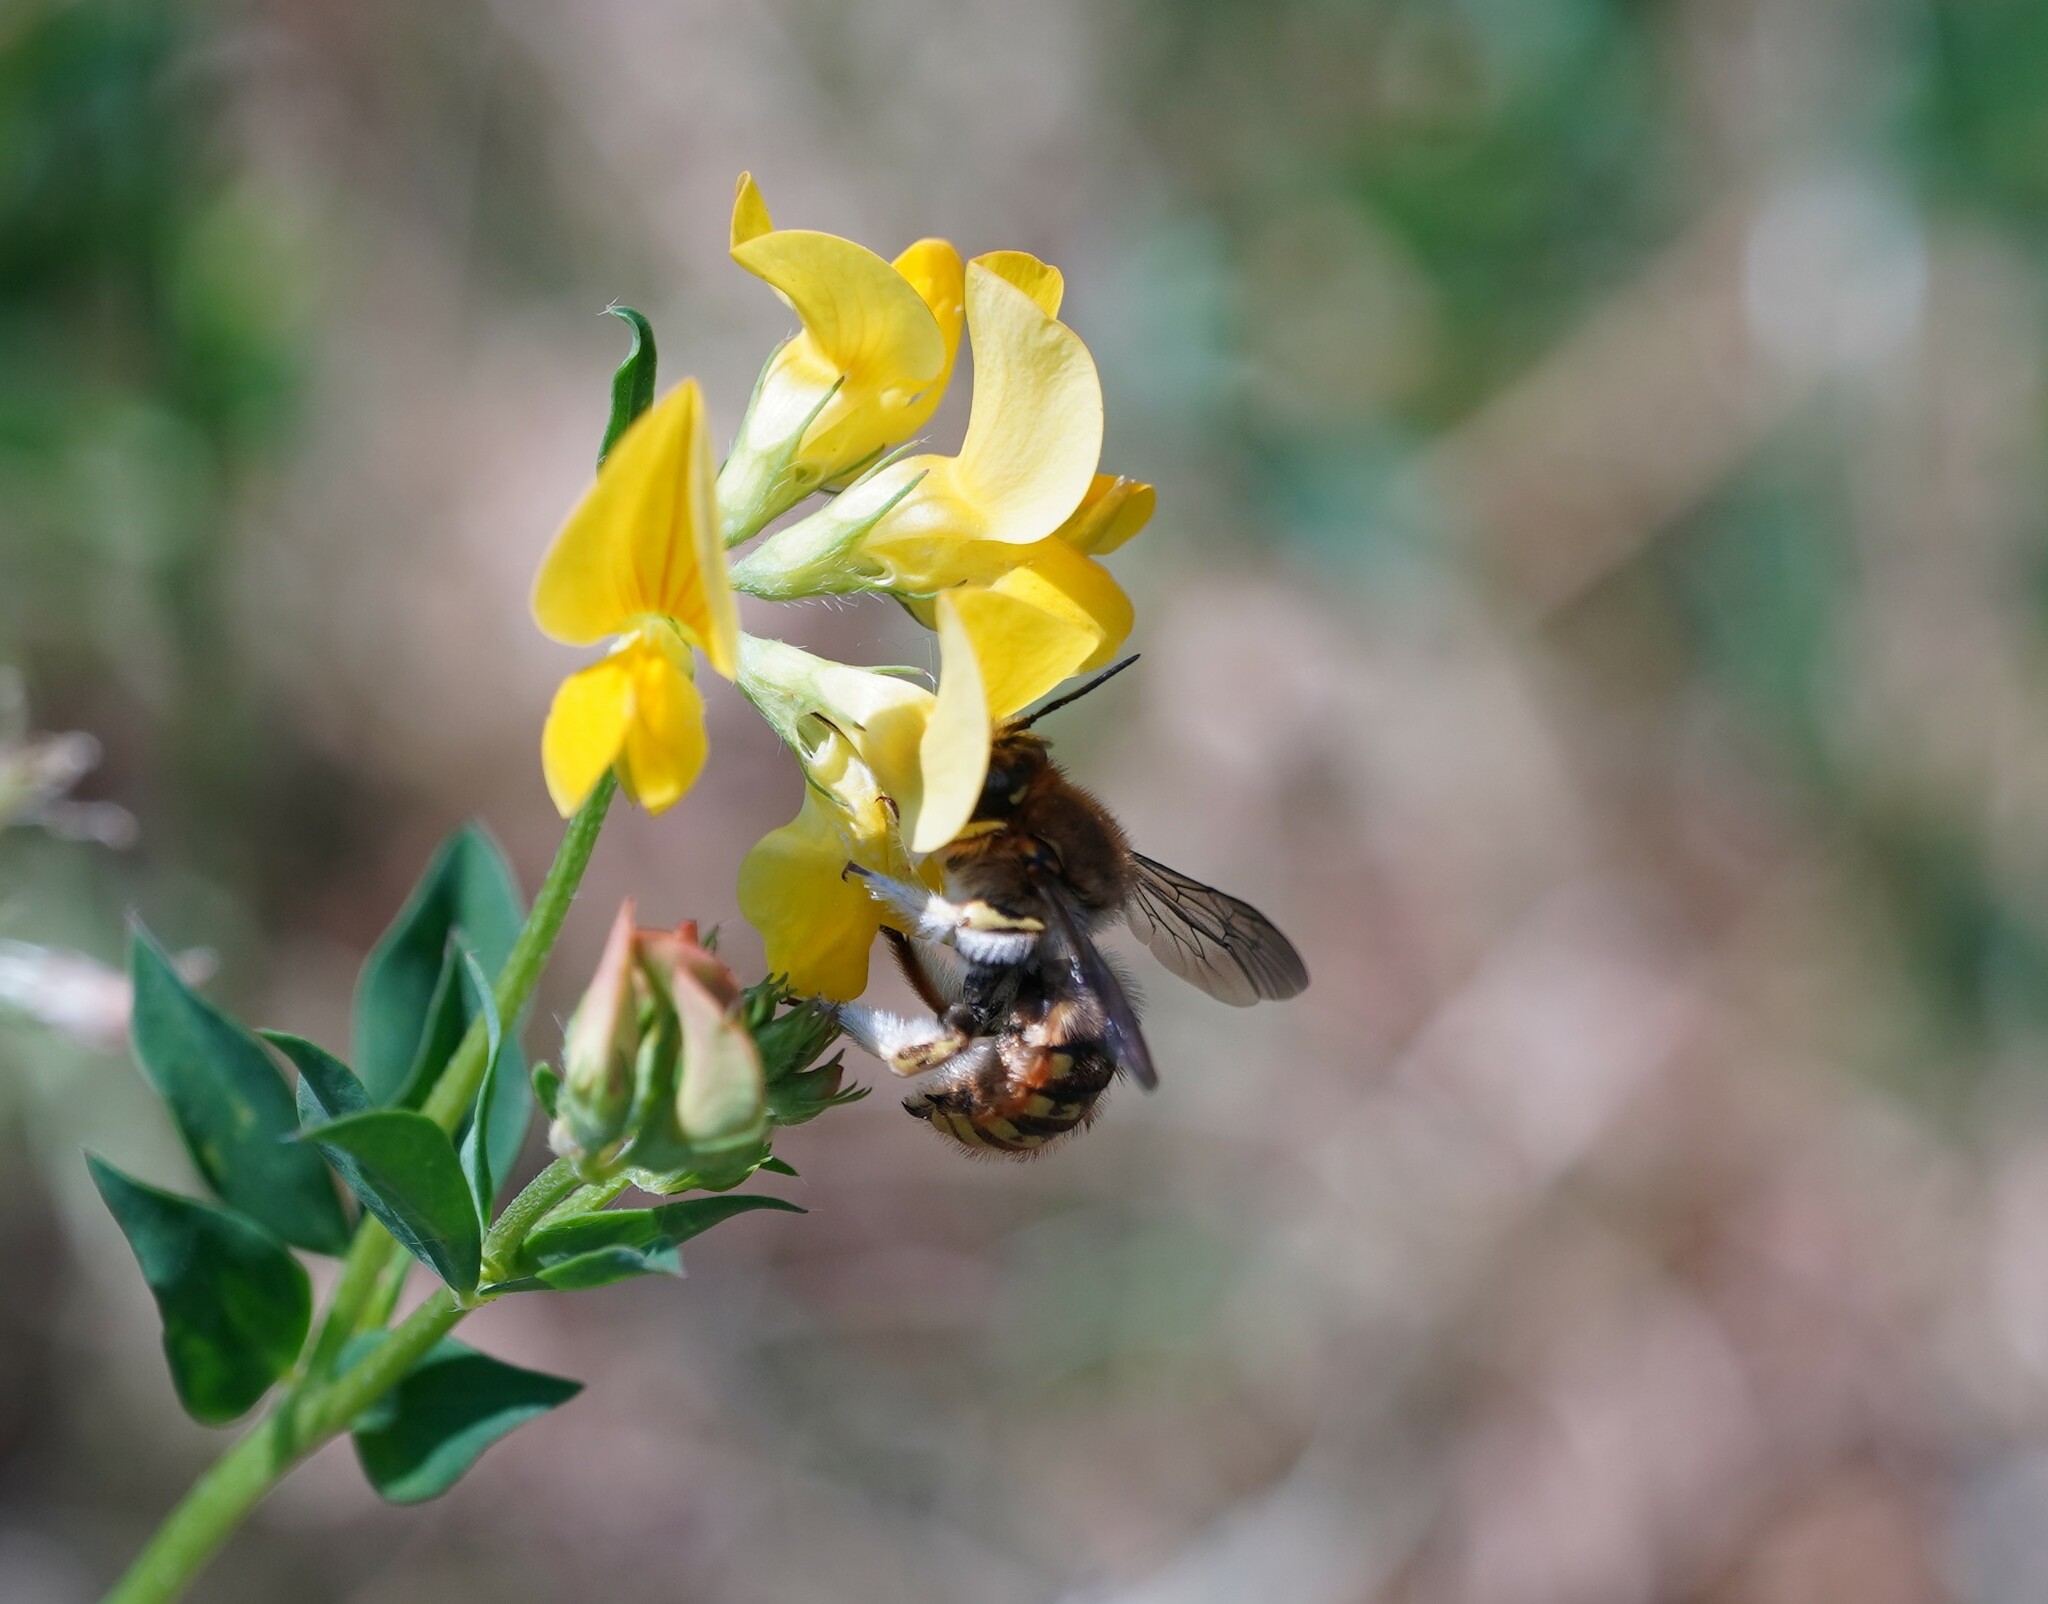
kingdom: Animalia
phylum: Arthropoda
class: Insecta
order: Hymenoptera
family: Megachilidae
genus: Anthidium
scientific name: Anthidium manicatum
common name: Wool carder bee
